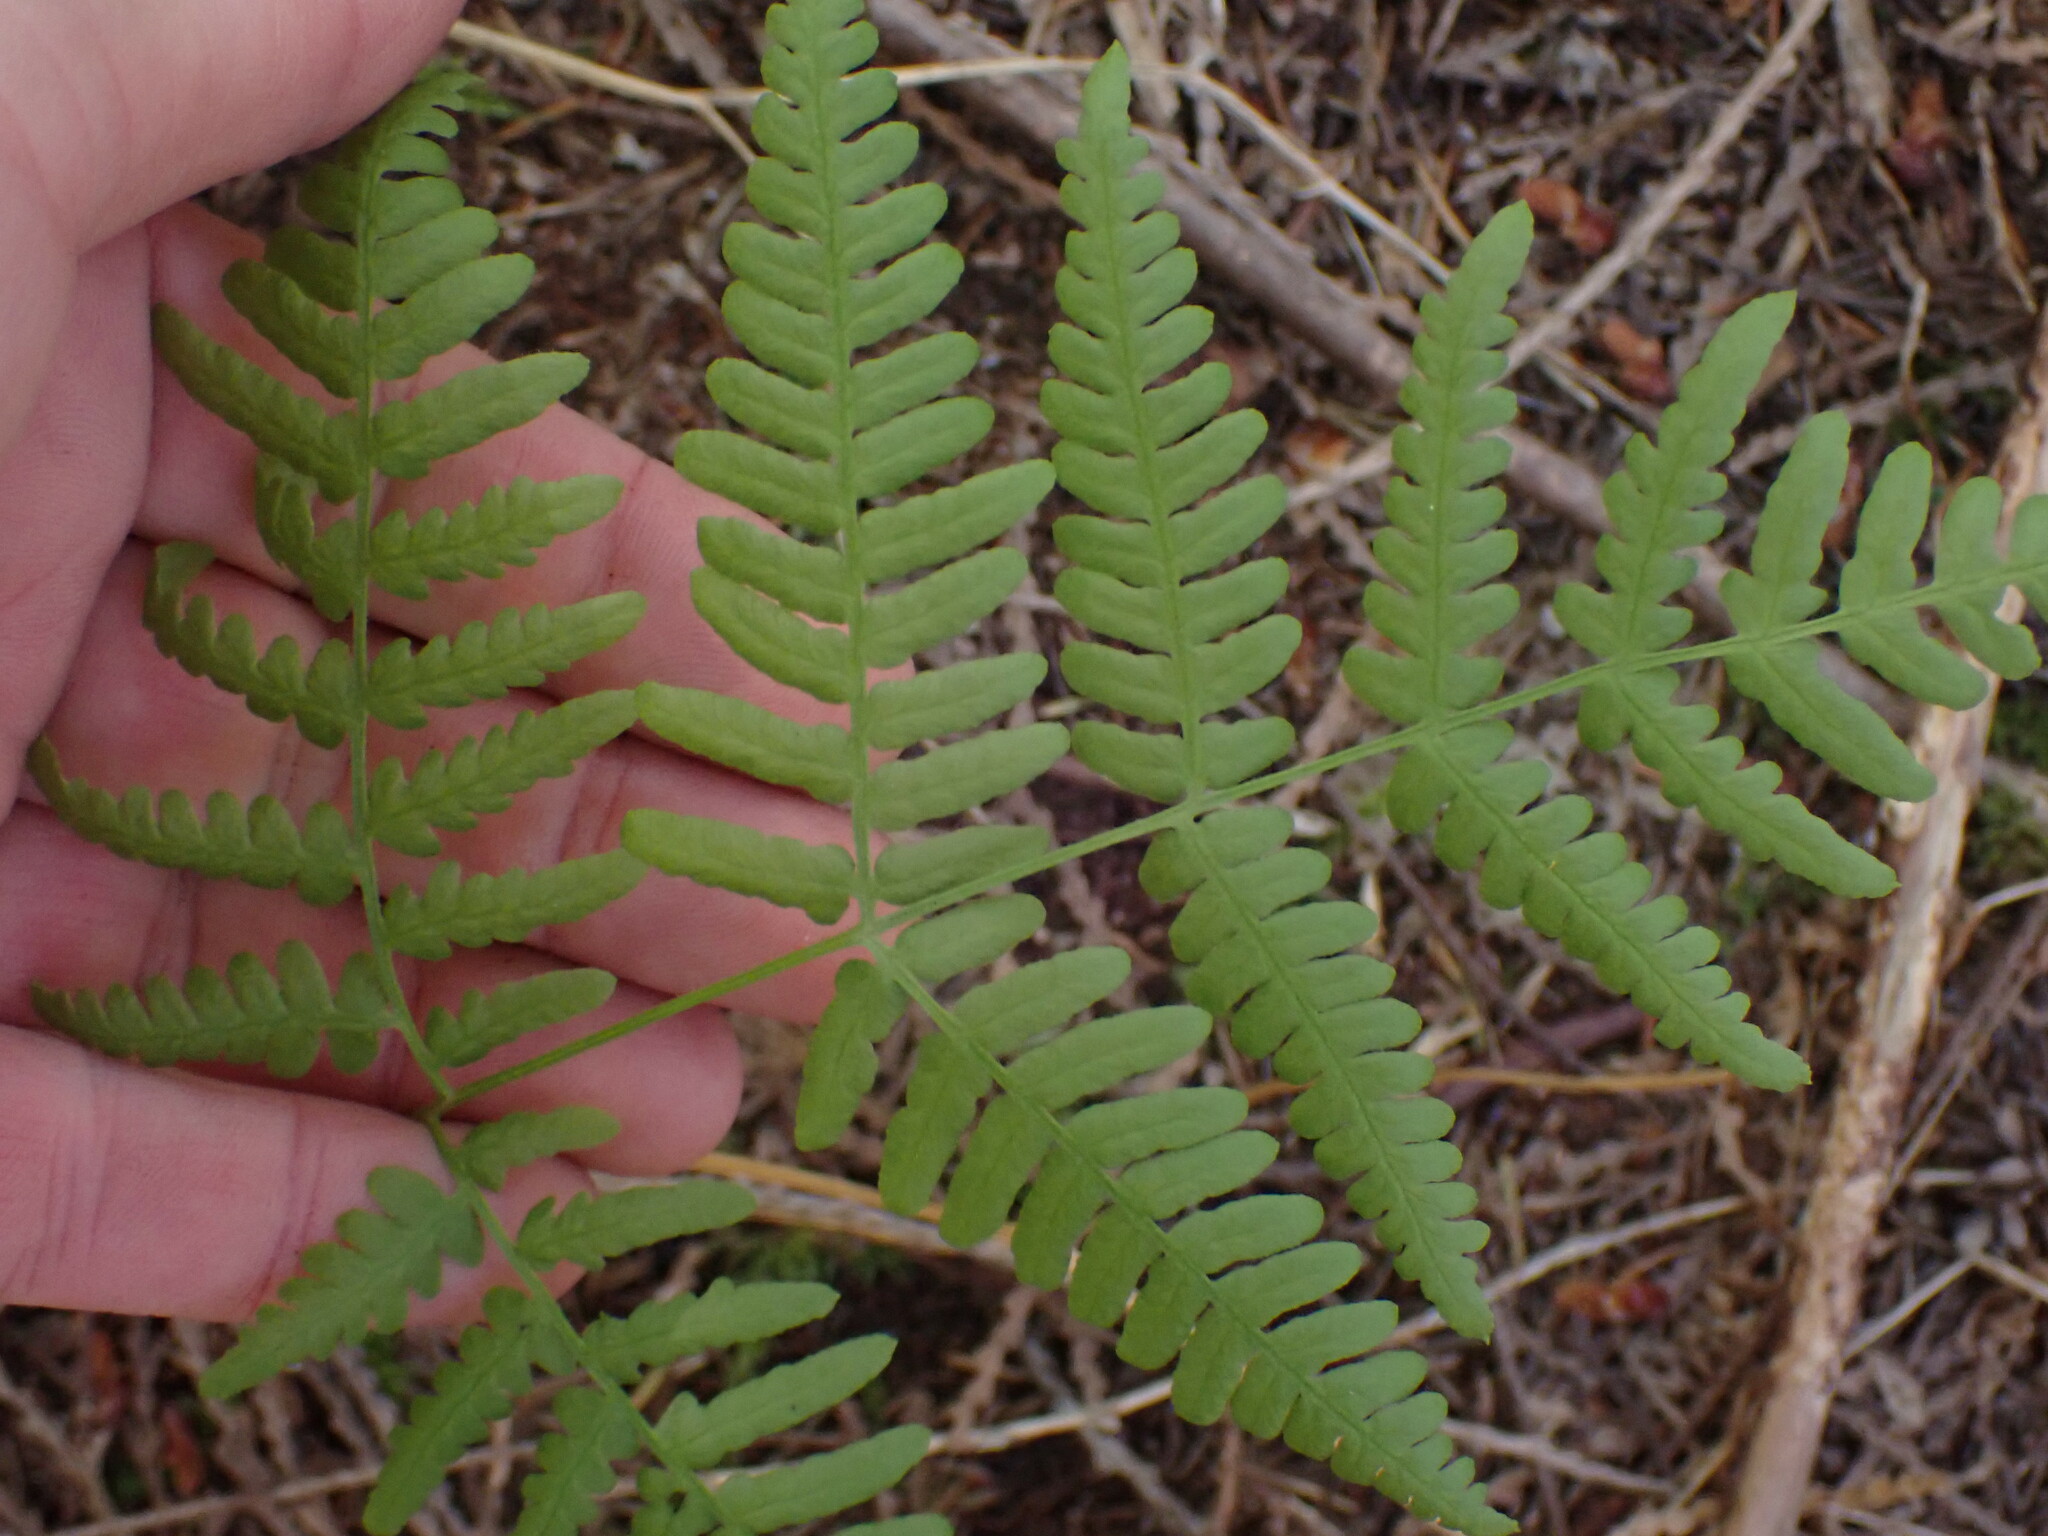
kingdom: Plantae
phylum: Tracheophyta
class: Polypodiopsida
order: Polypodiales
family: Dennstaedtiaceae
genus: Pteridium
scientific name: Pteridium aquilinum
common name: Bracken
